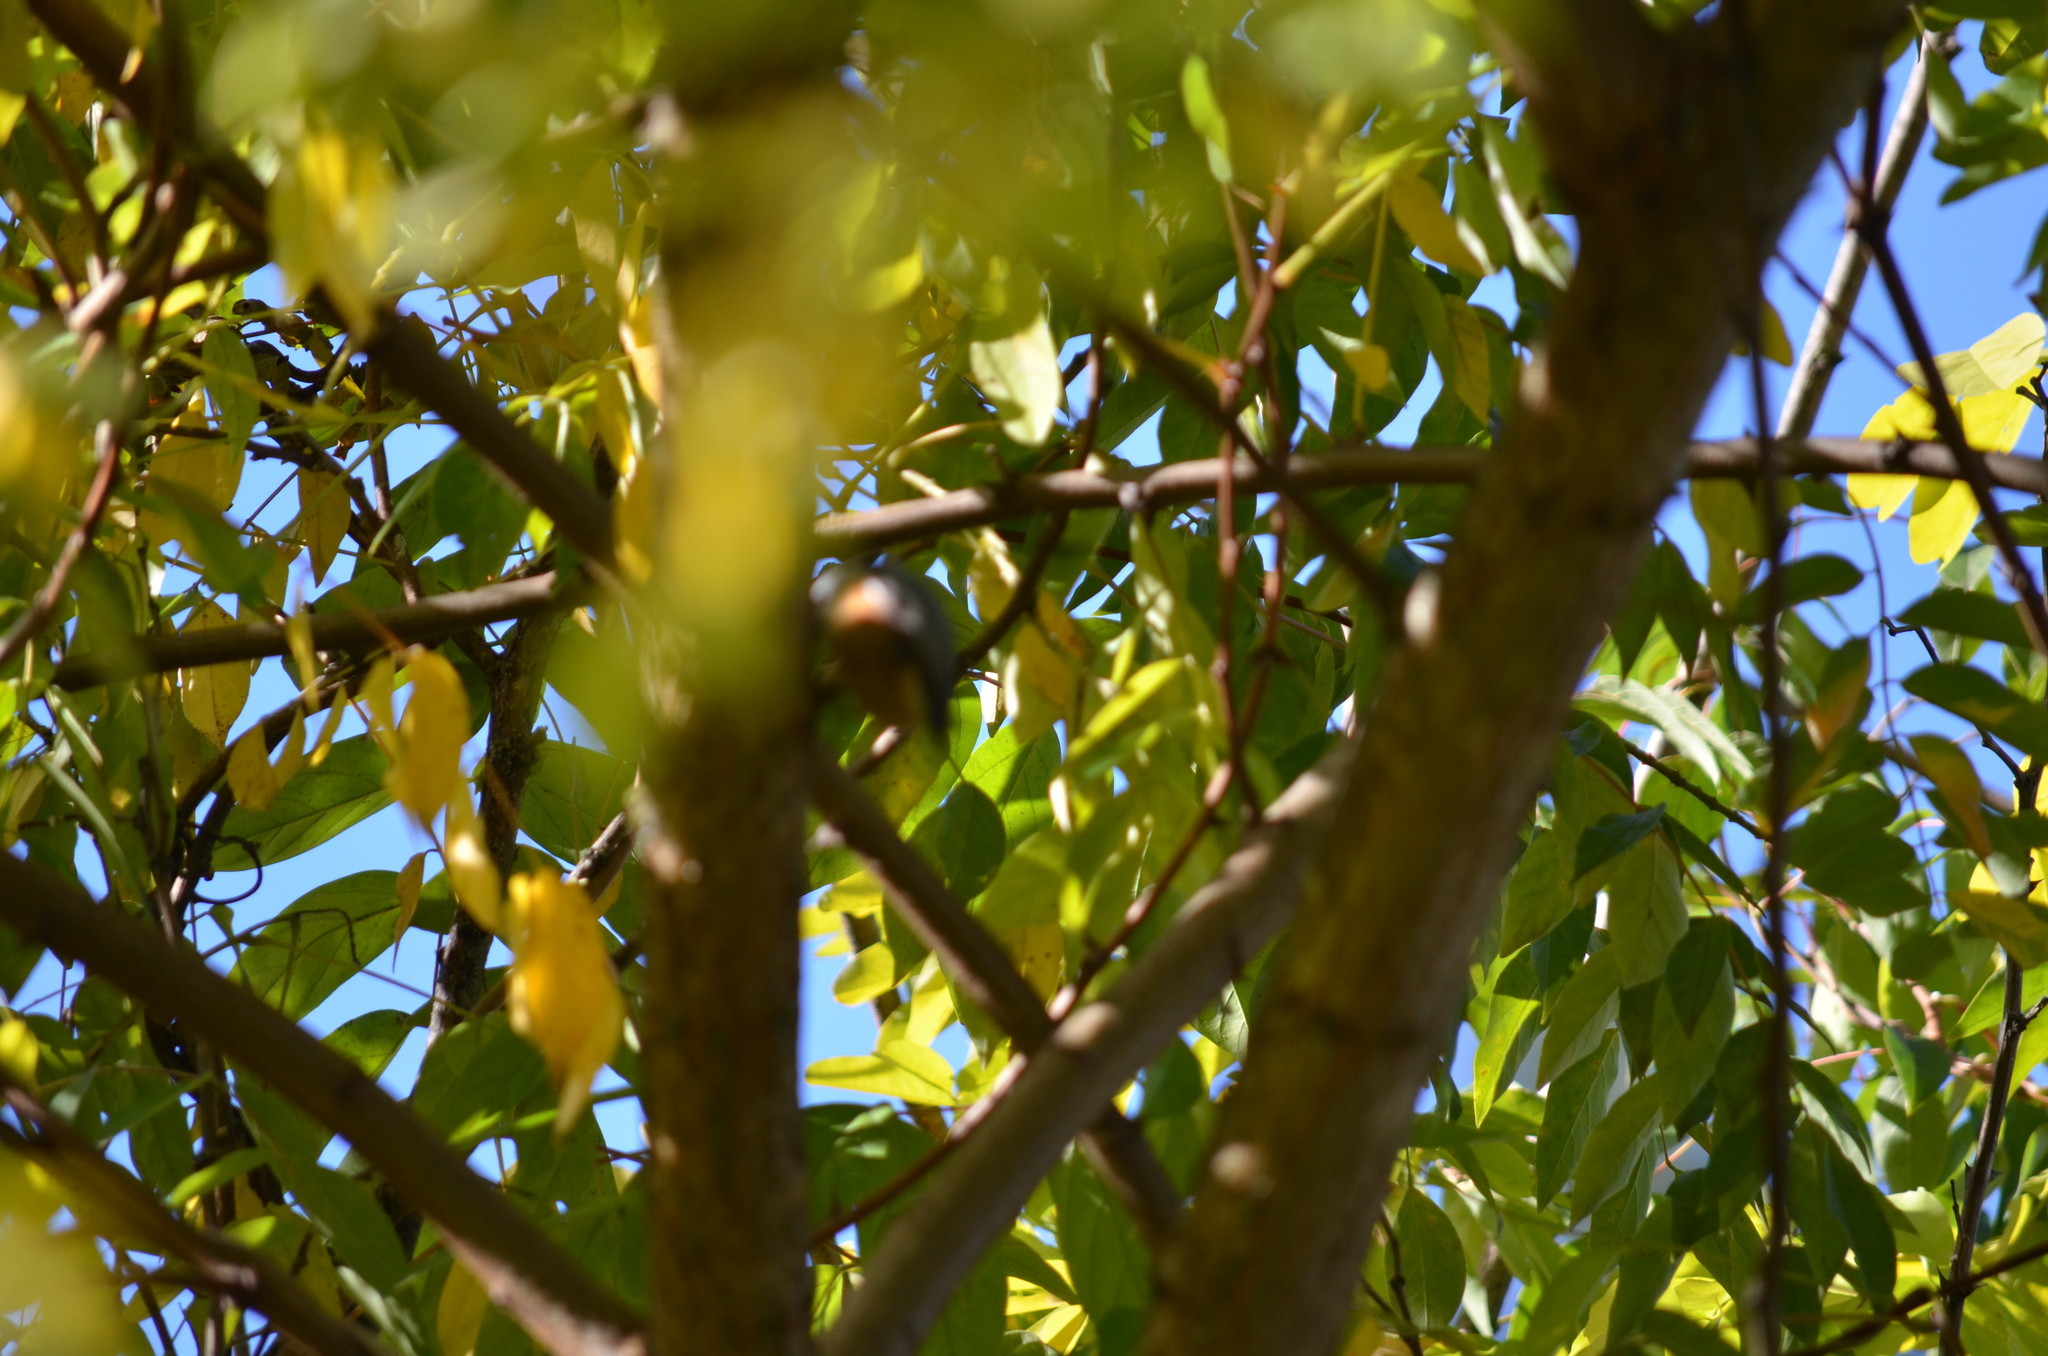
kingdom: Animalia
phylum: Chordata
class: Aves
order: Passeriformes
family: Sittidae
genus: Sitta
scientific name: Sitta canadensis
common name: Red-breasted nuthatch
